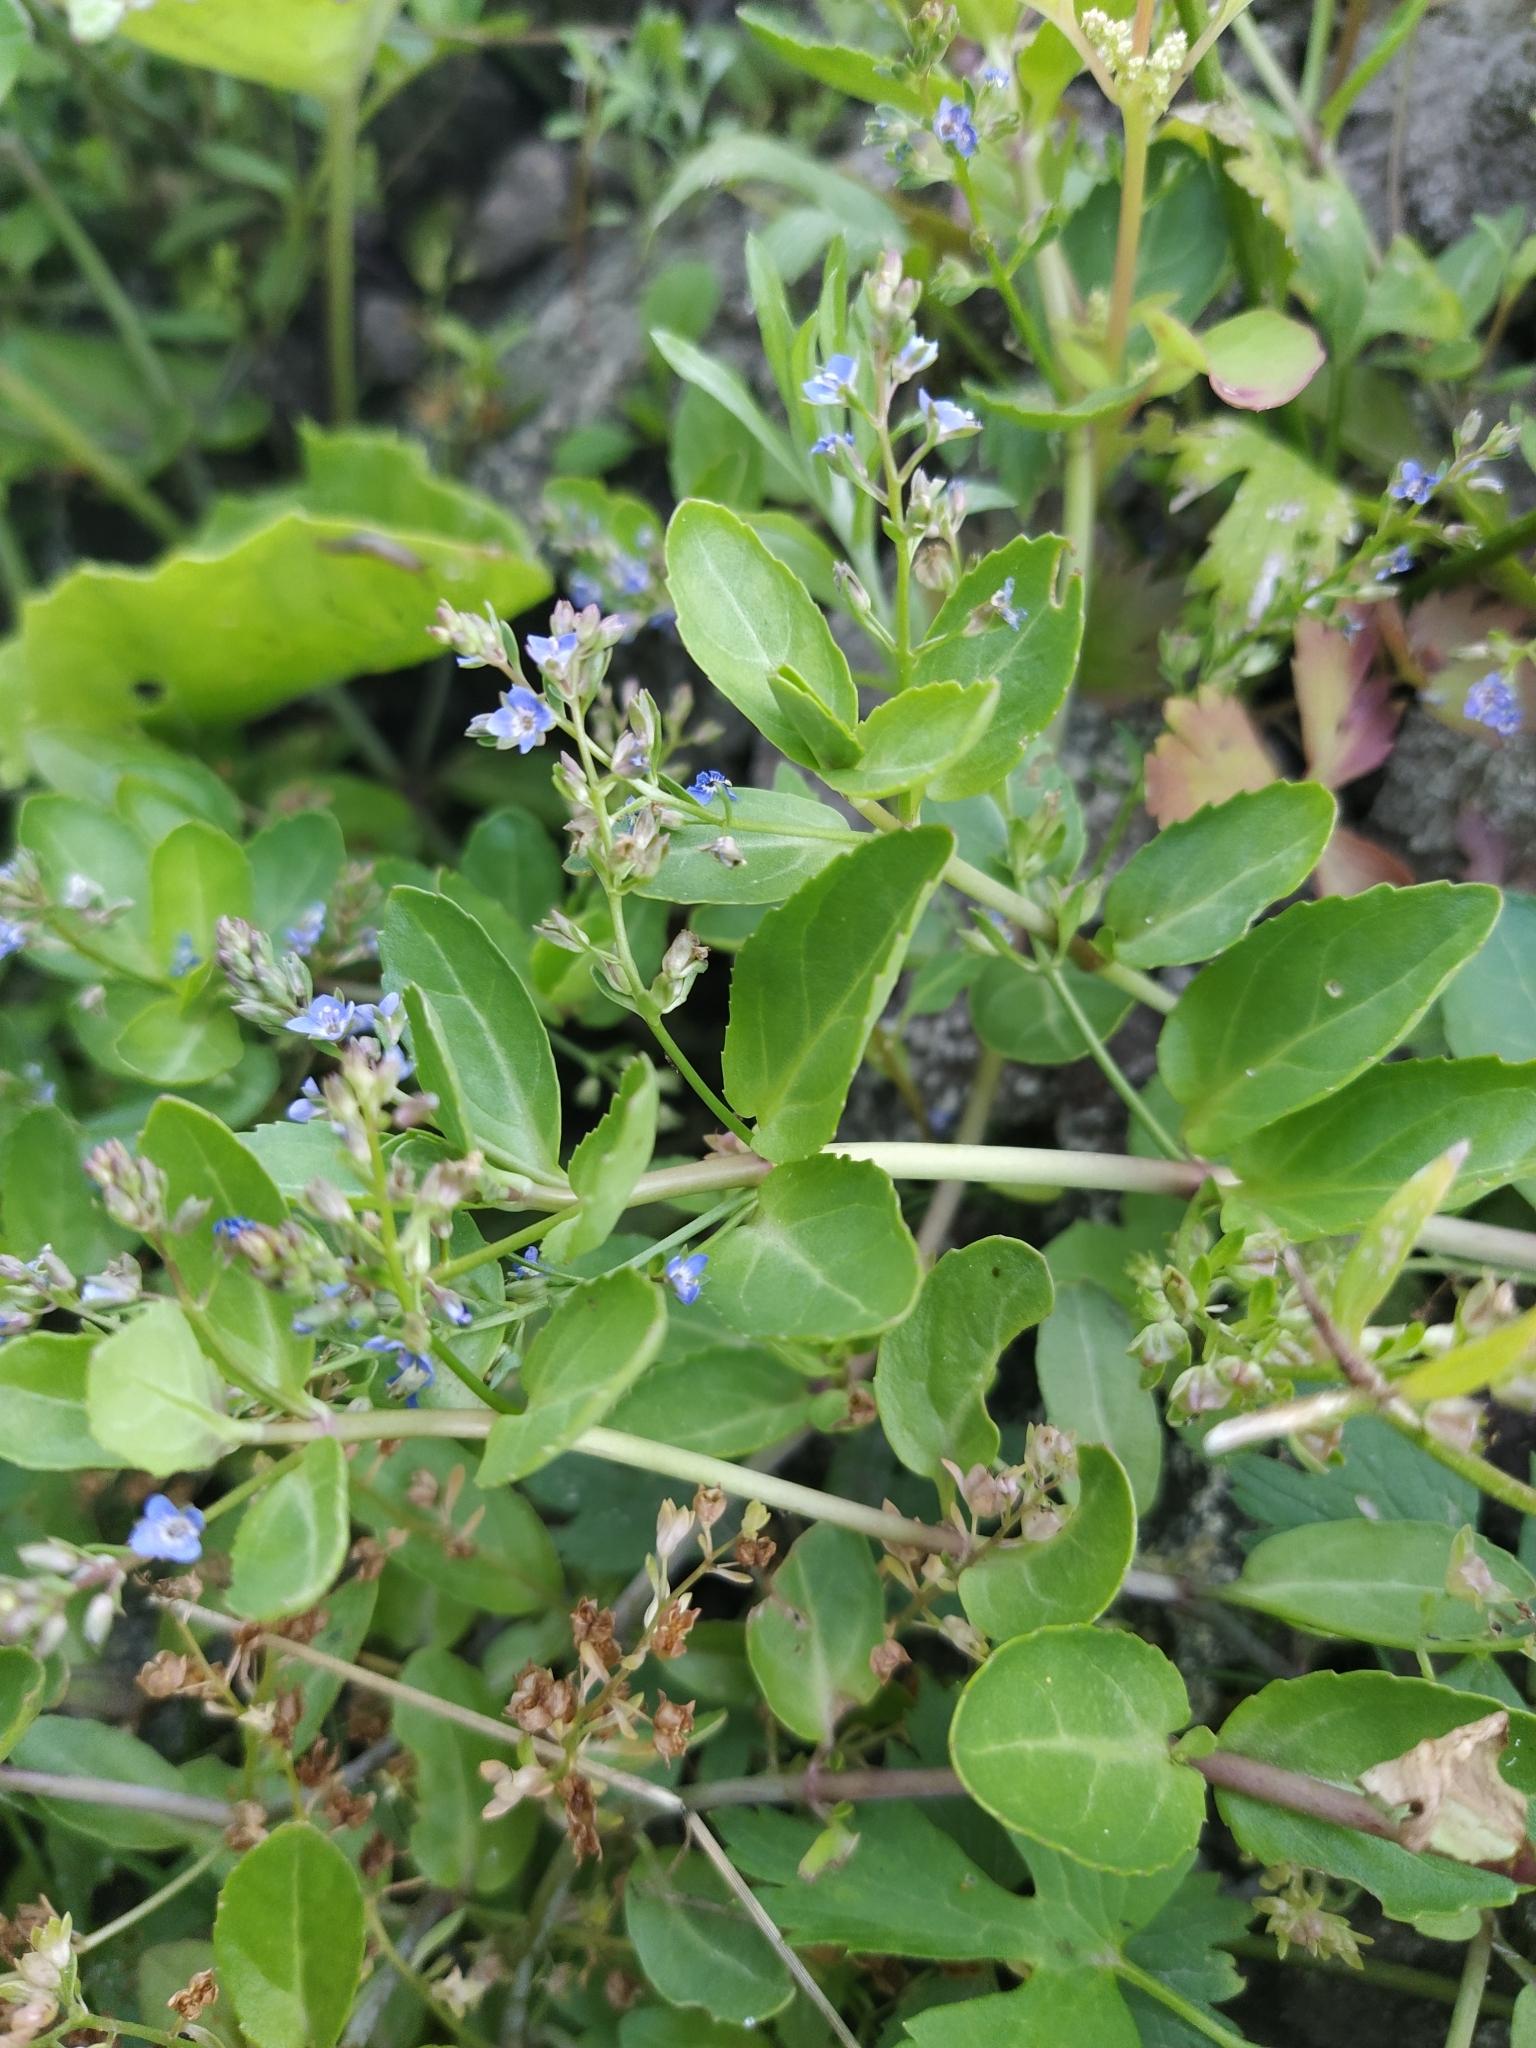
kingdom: Plantae
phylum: Tracheophyta
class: Magnoliopsida
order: Lamiales
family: Plantaginaceae
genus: Veronica
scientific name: Veronica beccabunga
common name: Brooklime
